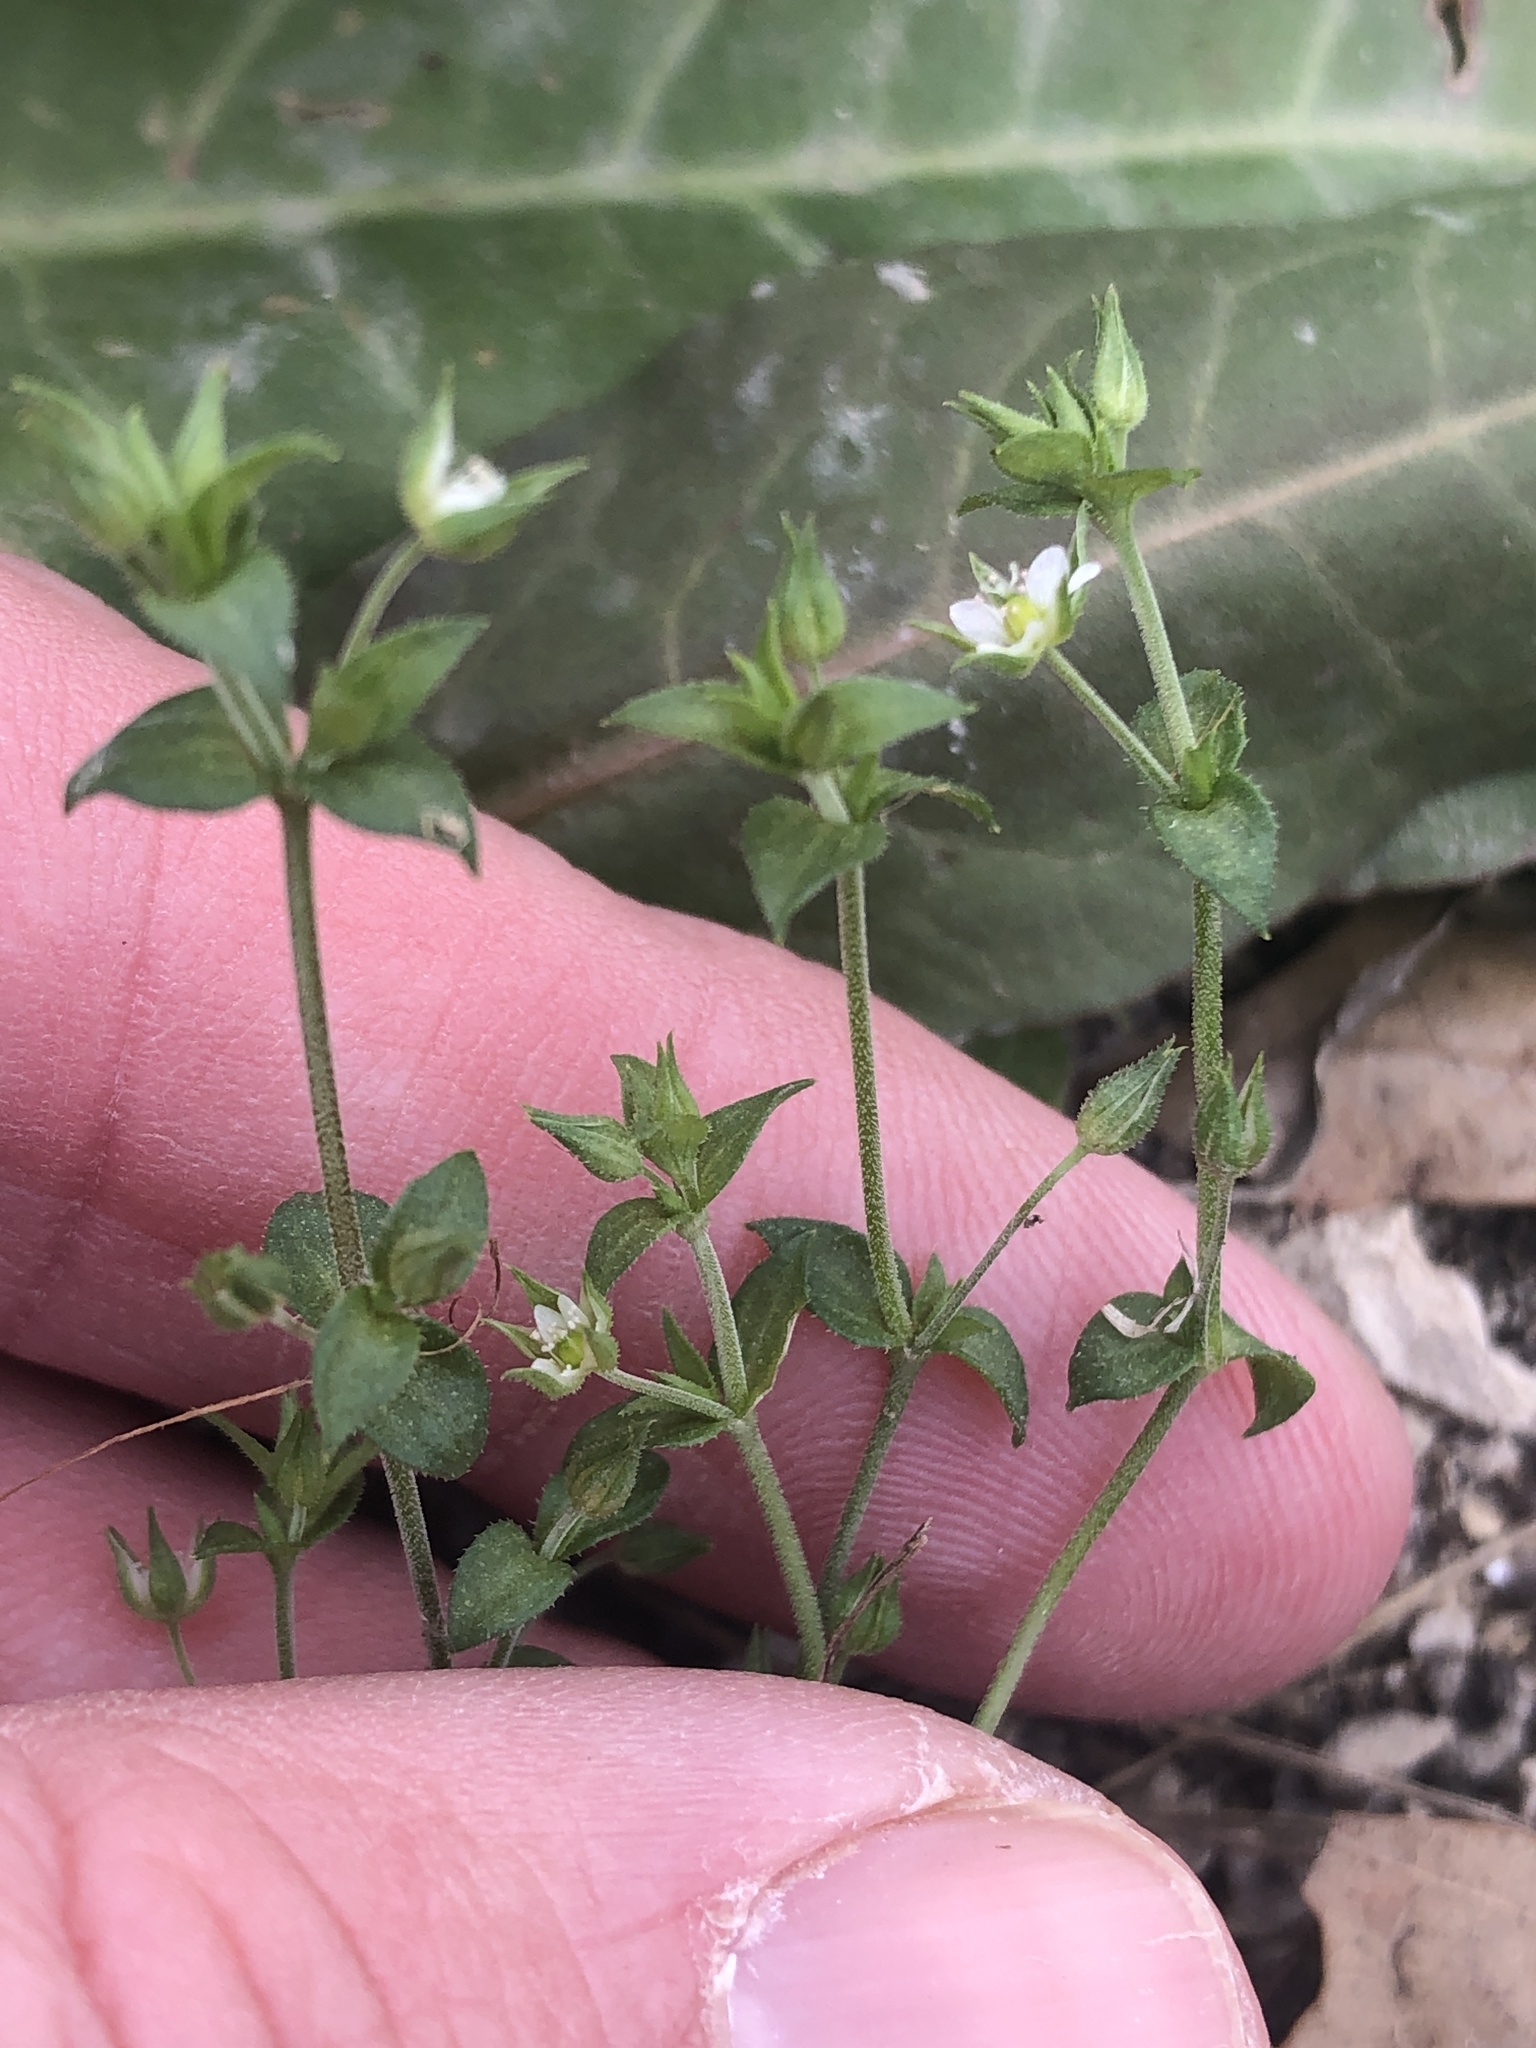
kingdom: Plantae
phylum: Tracheophyta
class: Magnoliopsida
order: Caryophyllales
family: Caryophyllaceae
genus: Arenaria
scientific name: Arenaria serpyllifolia
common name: Thyme-leaved sandwort
